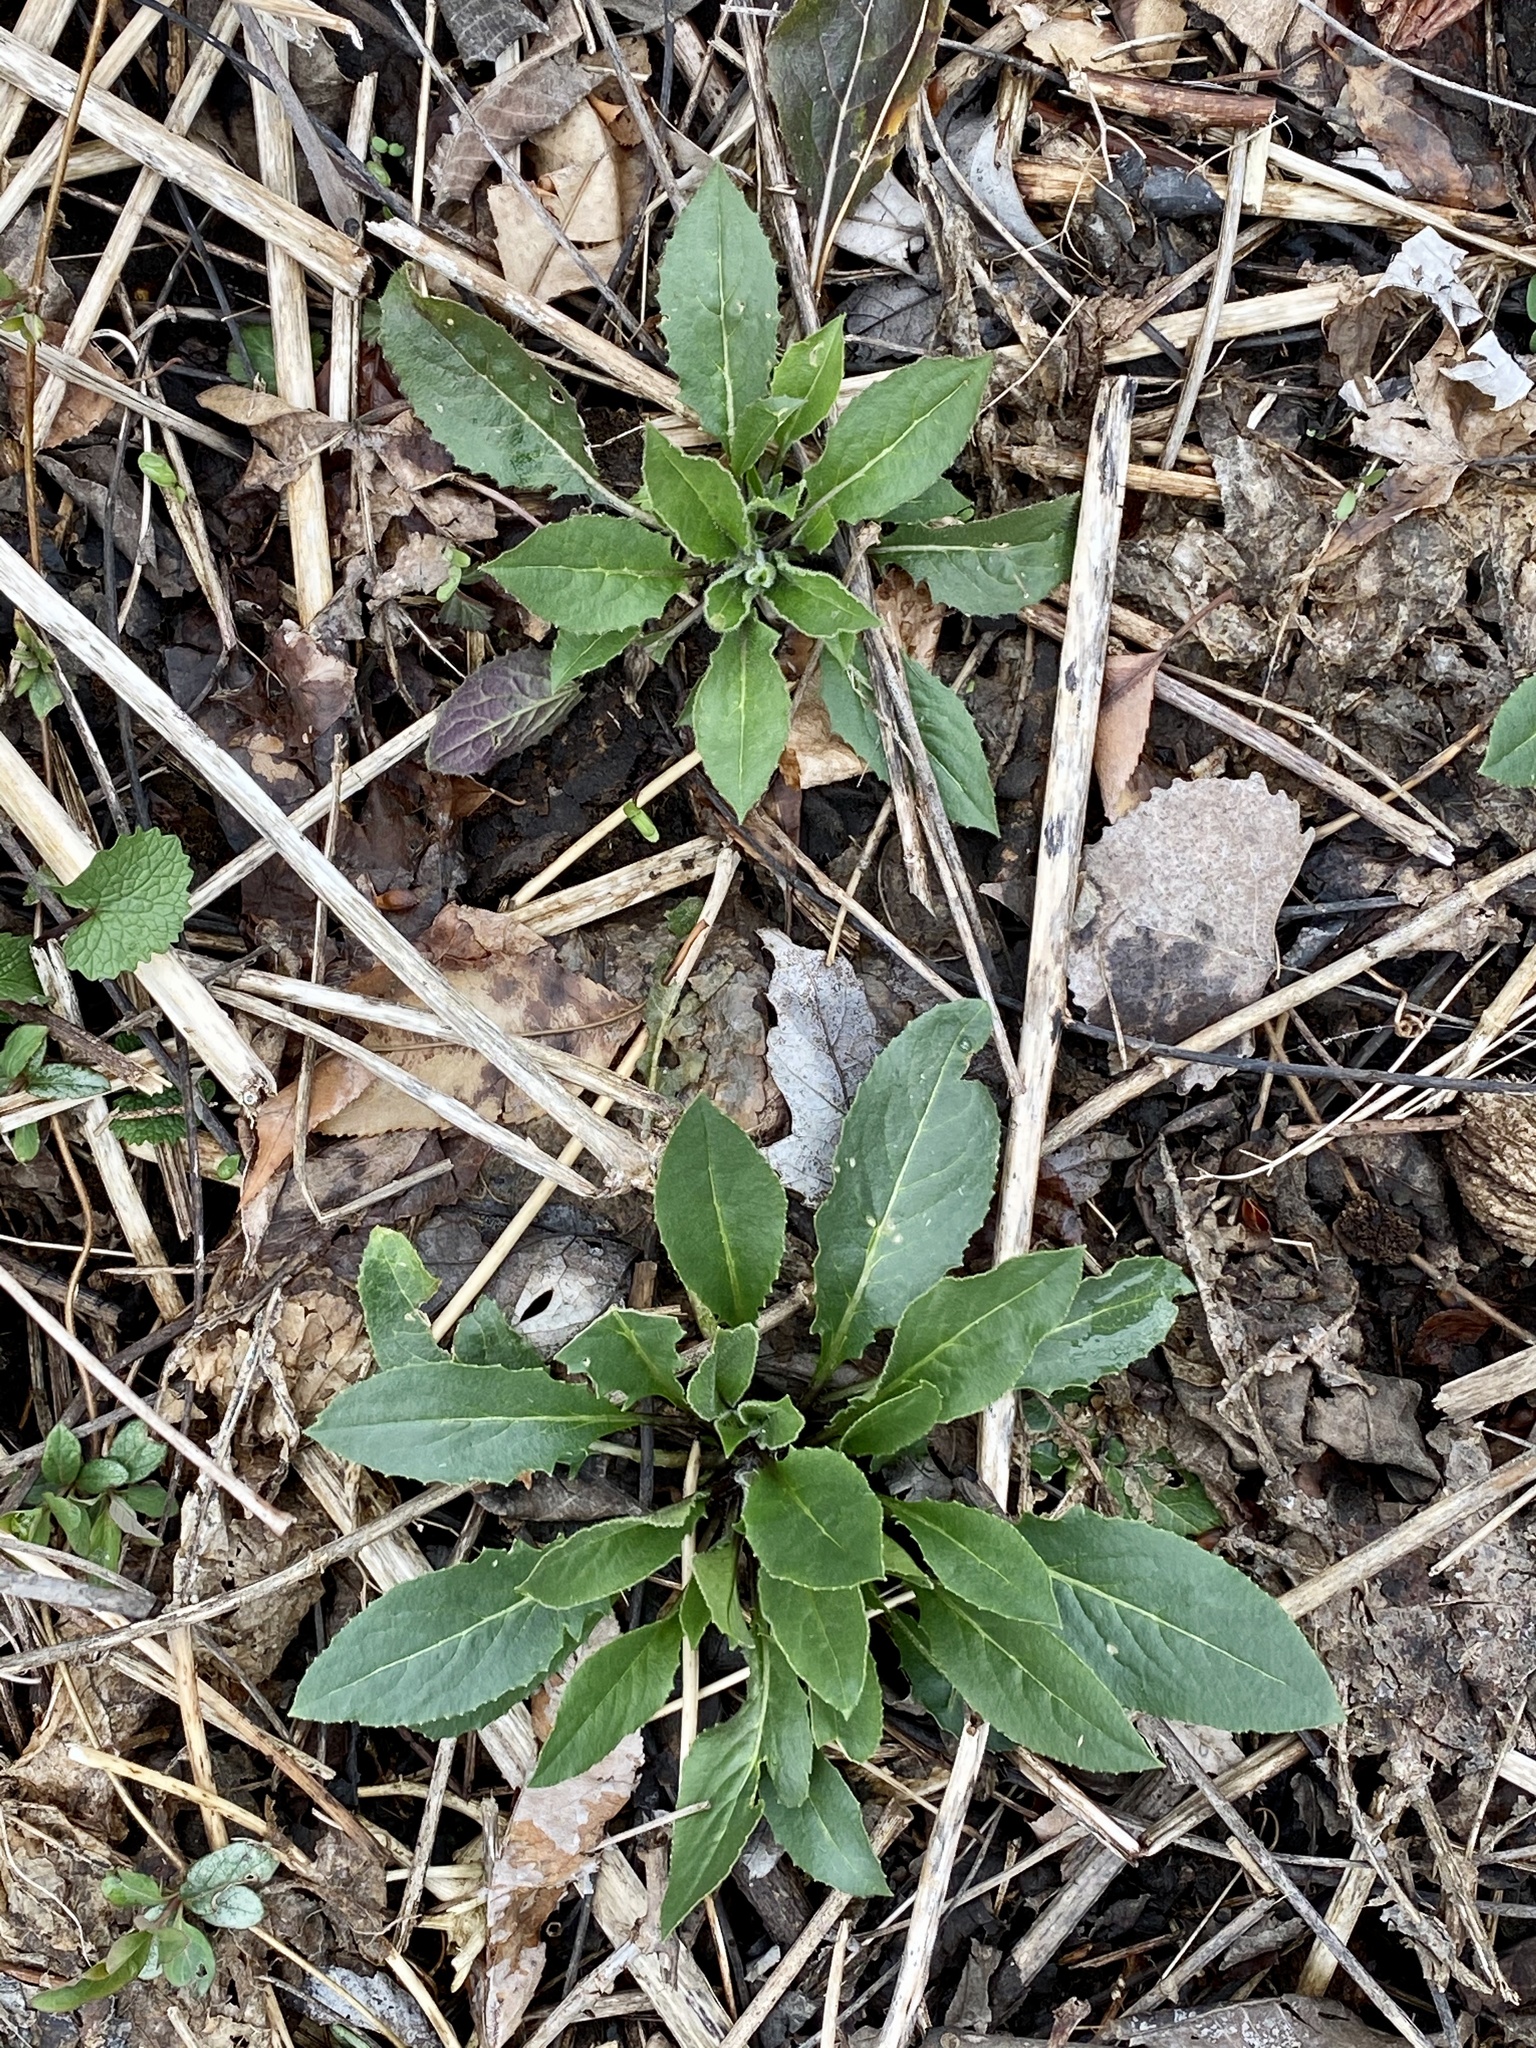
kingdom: Plantae
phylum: Tracheophyta
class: Magnoliopsida
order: Brassicales
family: Brassicaceae
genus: Hesperis
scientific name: Hesperis matronalis
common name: Dame's-violet
